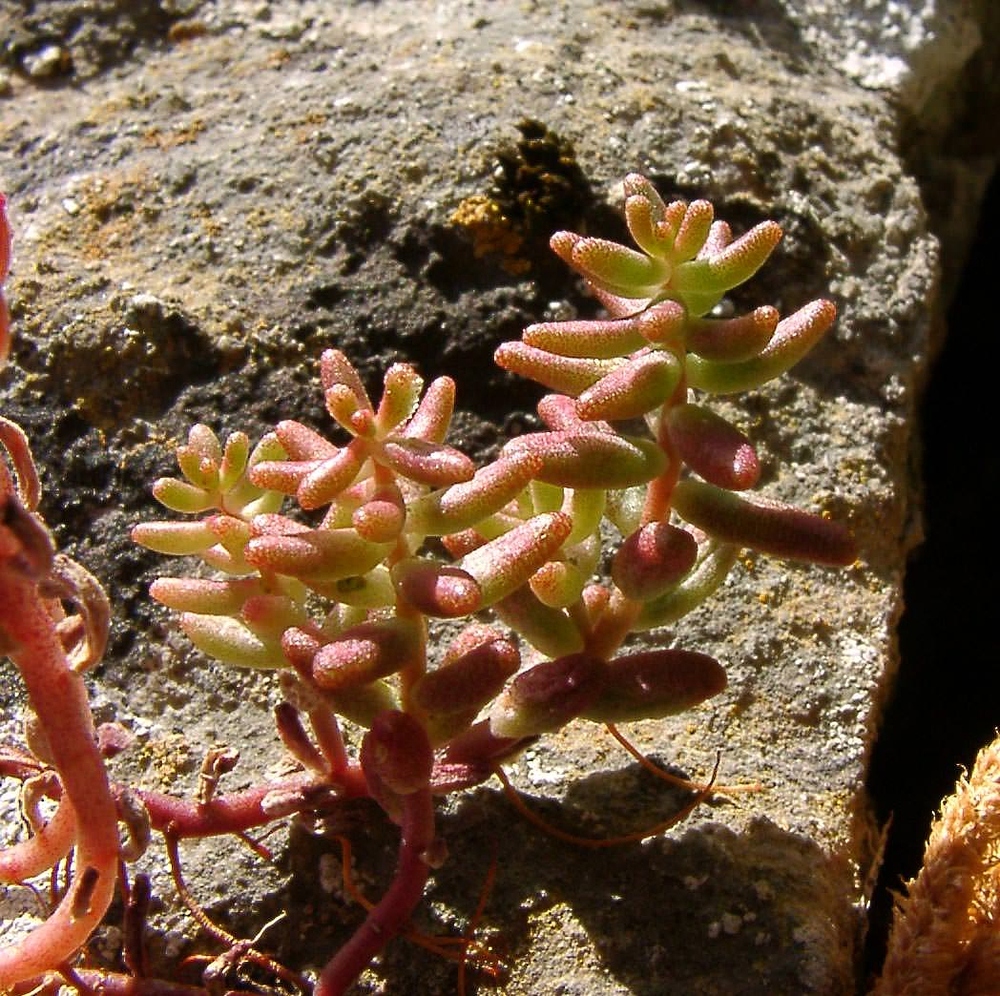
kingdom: Plantae
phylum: Tracheophyta
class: Magnoliopsida
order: Saxifragales
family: Crassulaceae
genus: Sedum
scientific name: Sedum album
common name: White stonecrop
